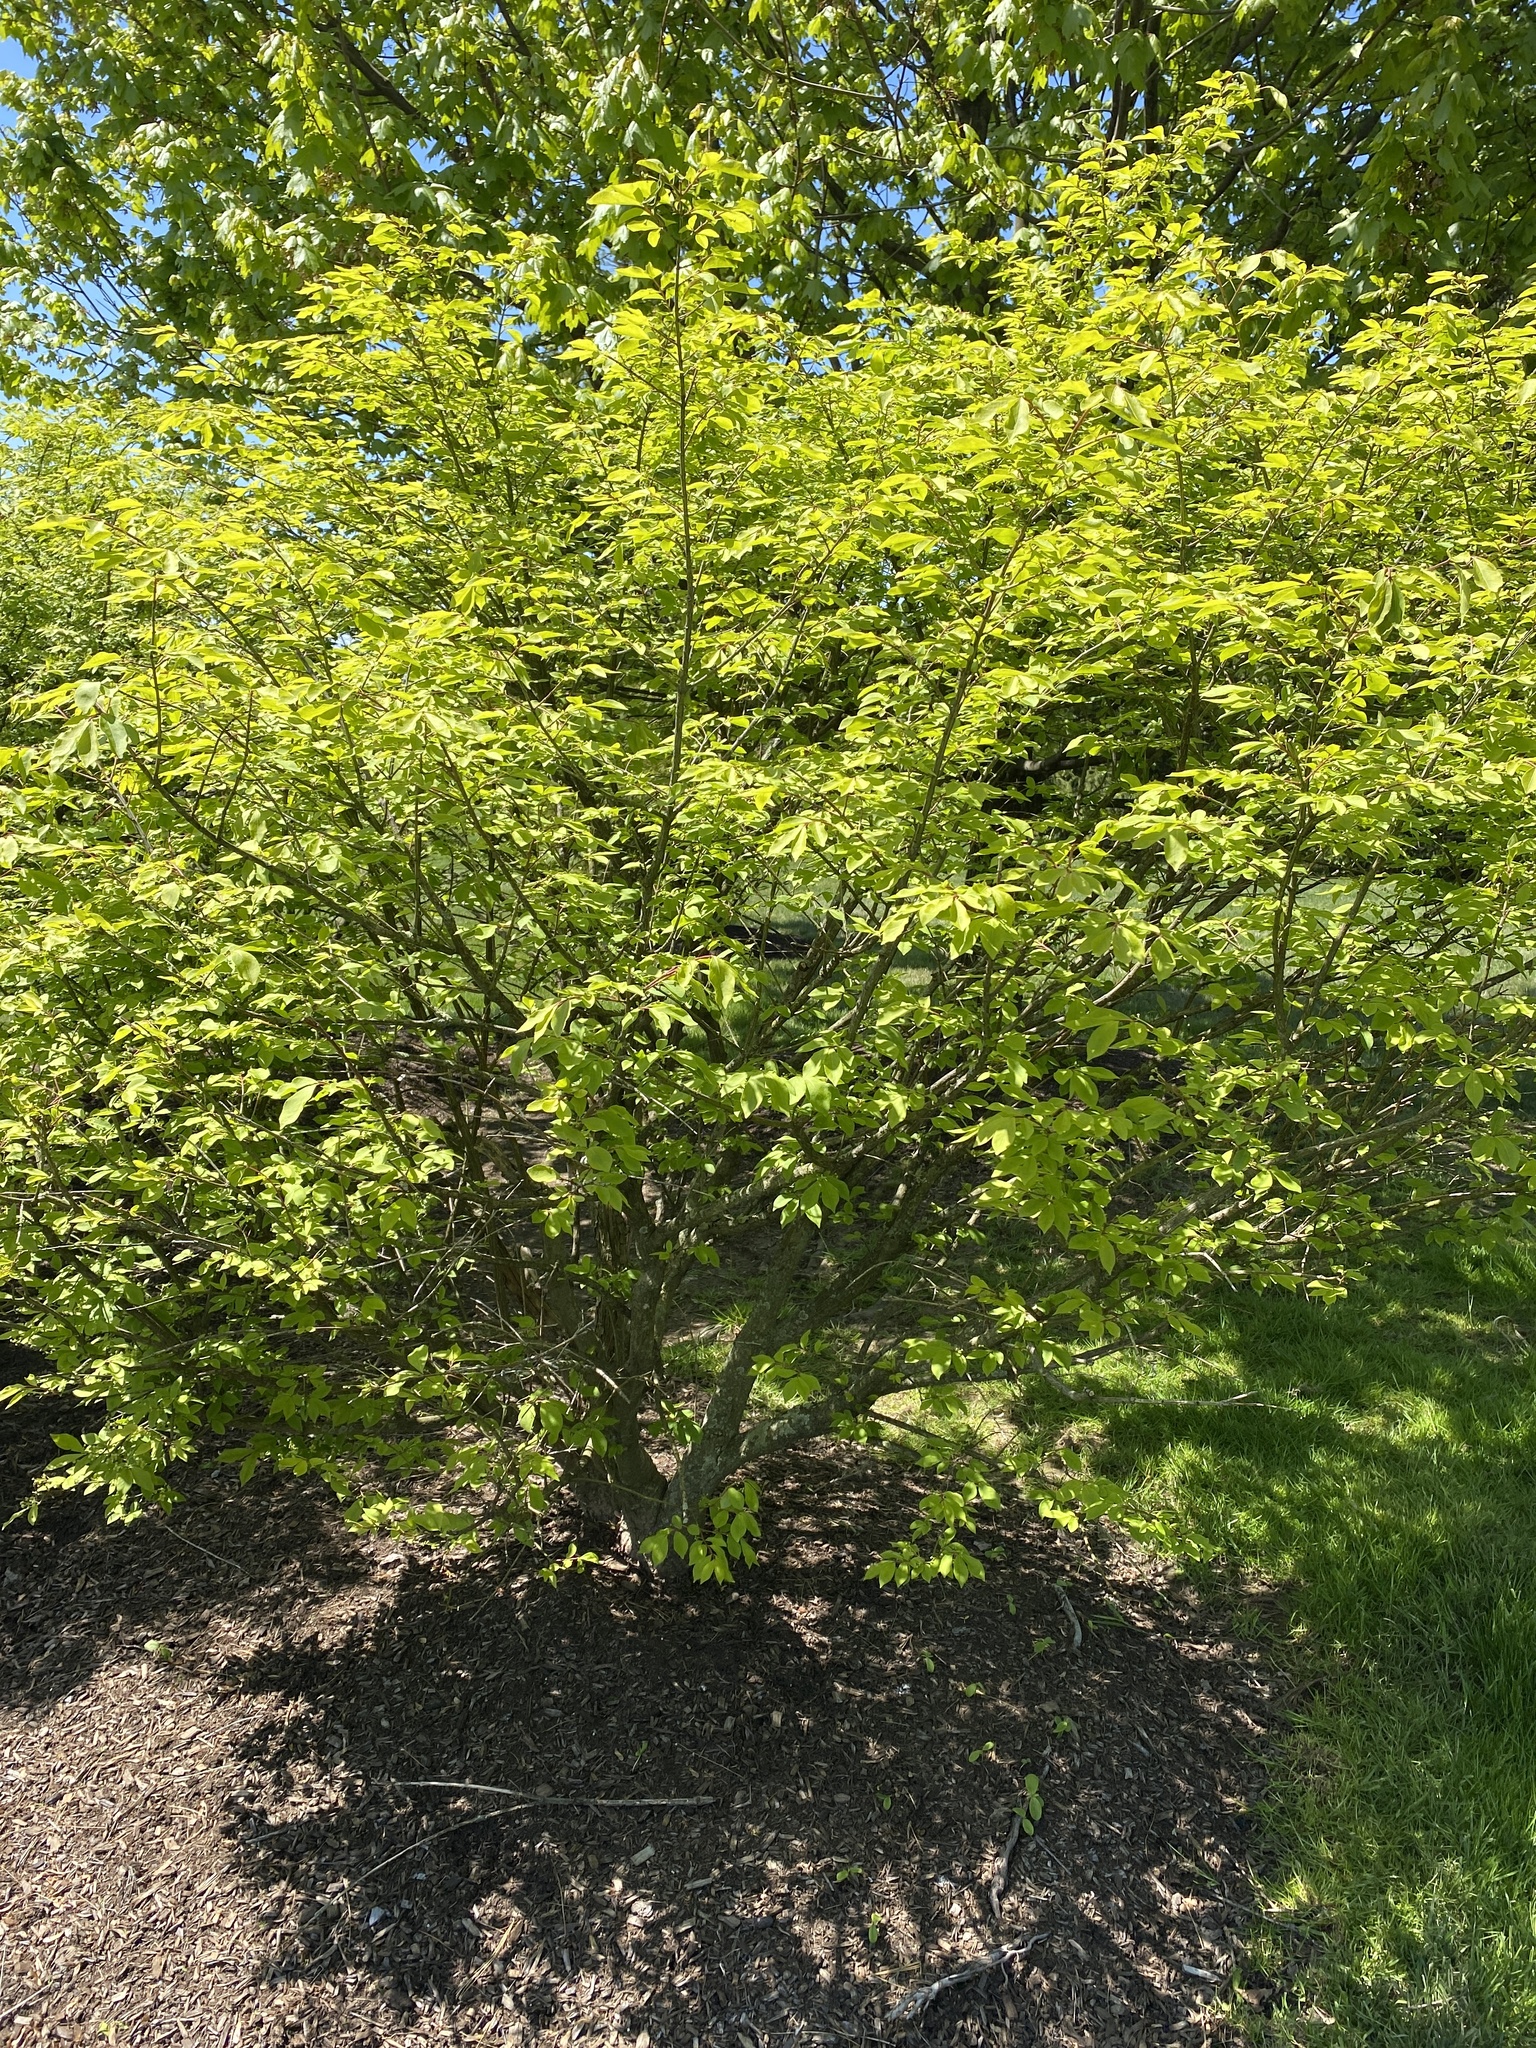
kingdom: Plantae
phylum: Tracheophyta
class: Magnoliopsida
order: Celastrales
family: Celastraceae
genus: Euonymus
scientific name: Euonymus alatus
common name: Winged euonymus
